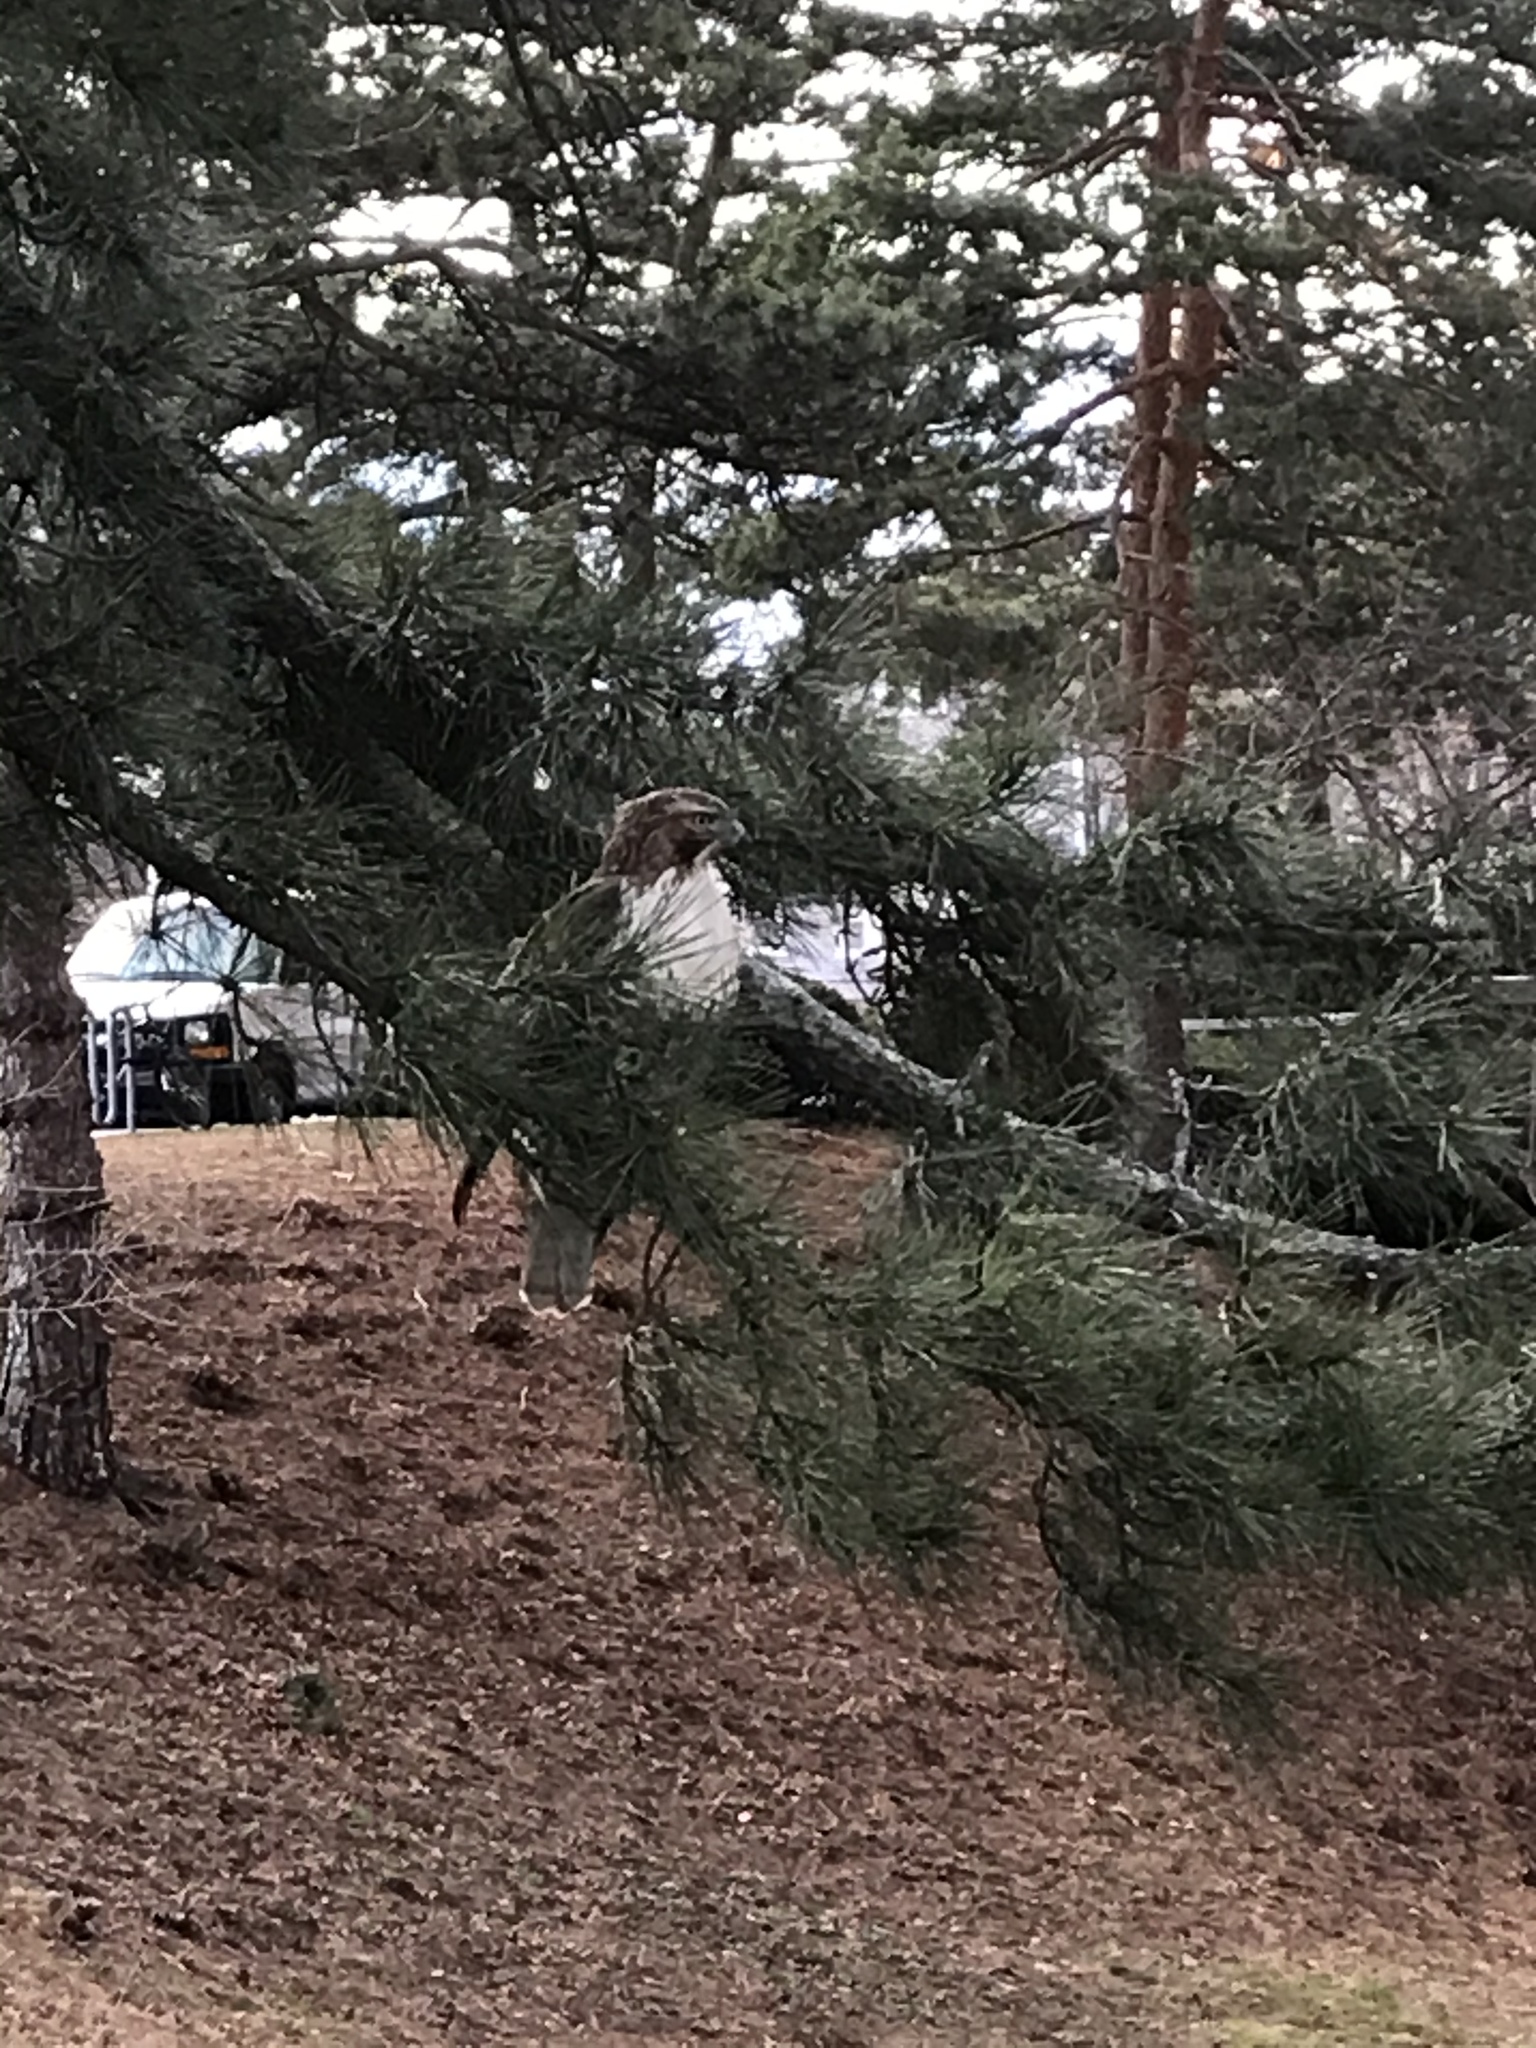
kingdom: Animalia
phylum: Chordata
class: Aves
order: Accipitriformes
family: Accipitridae
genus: Buteo
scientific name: Buteo jamaicensis
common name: Red-tailed hawk
